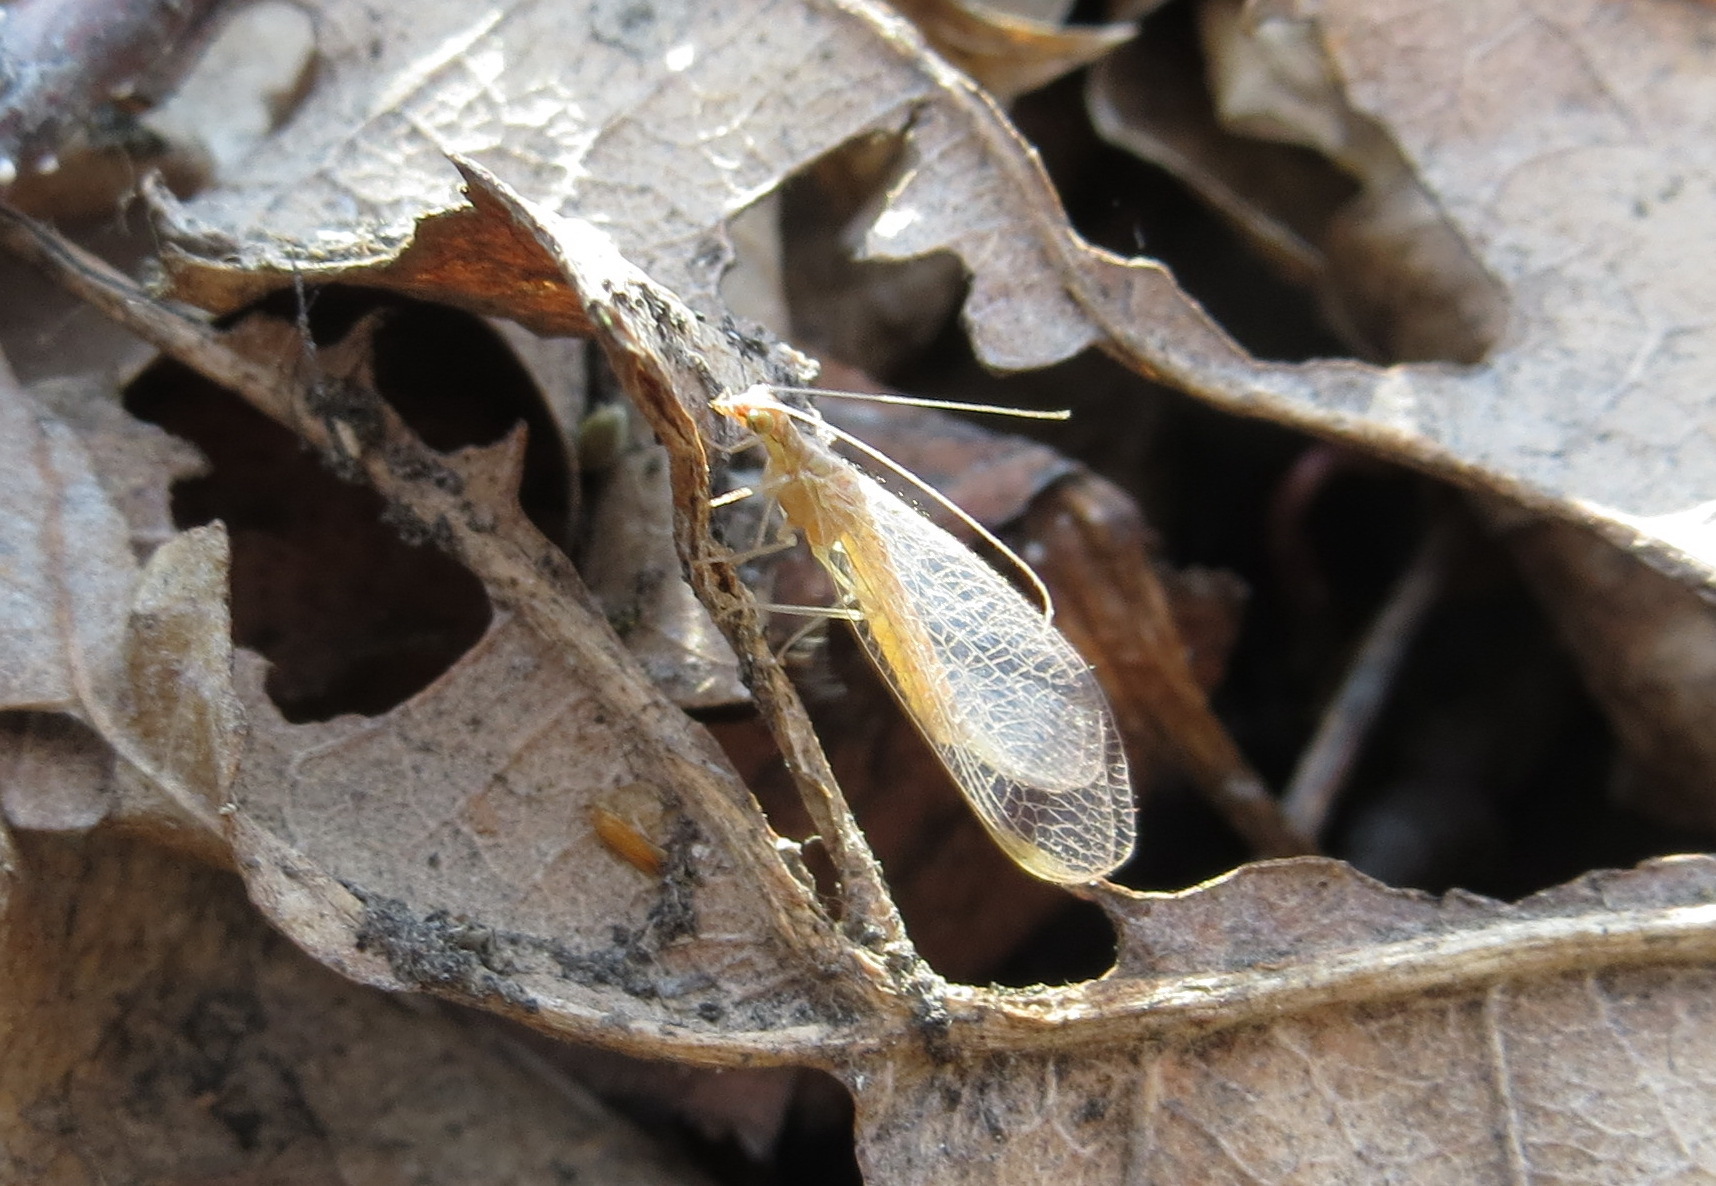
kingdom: Animalia
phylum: Arthropoda
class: Insecta
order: Neuroptera
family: Chrysopidae
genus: Chrysoperla
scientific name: Chrysoperla
